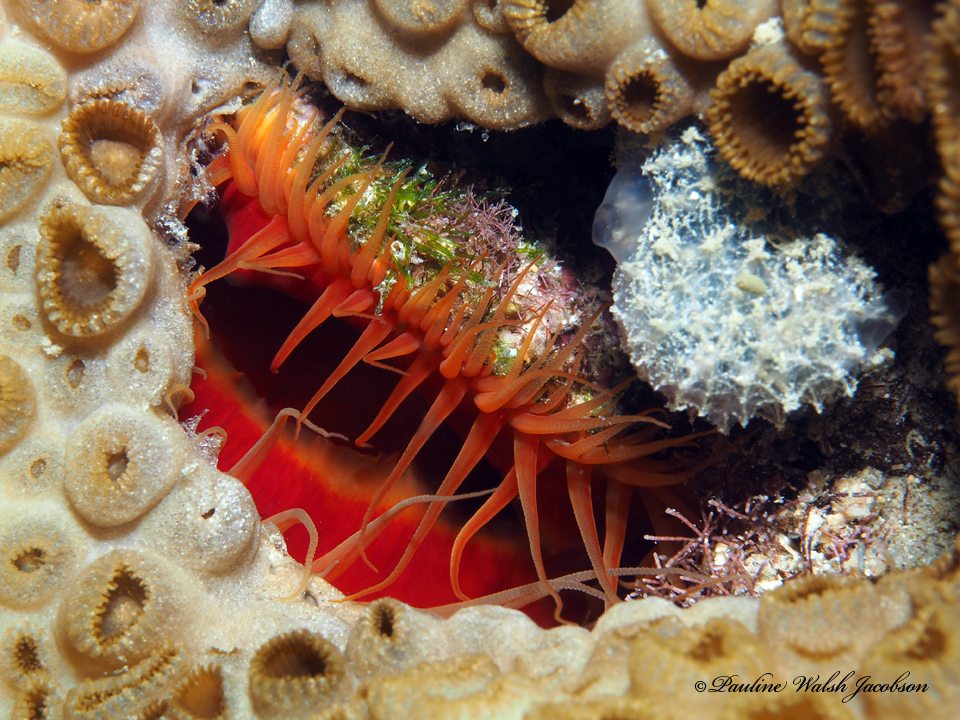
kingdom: Animalia
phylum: Mollusca
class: Bivalvia
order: Limida
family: Limidae
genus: Ctenoides
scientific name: Ctenoides scaber
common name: Rough fileclam
